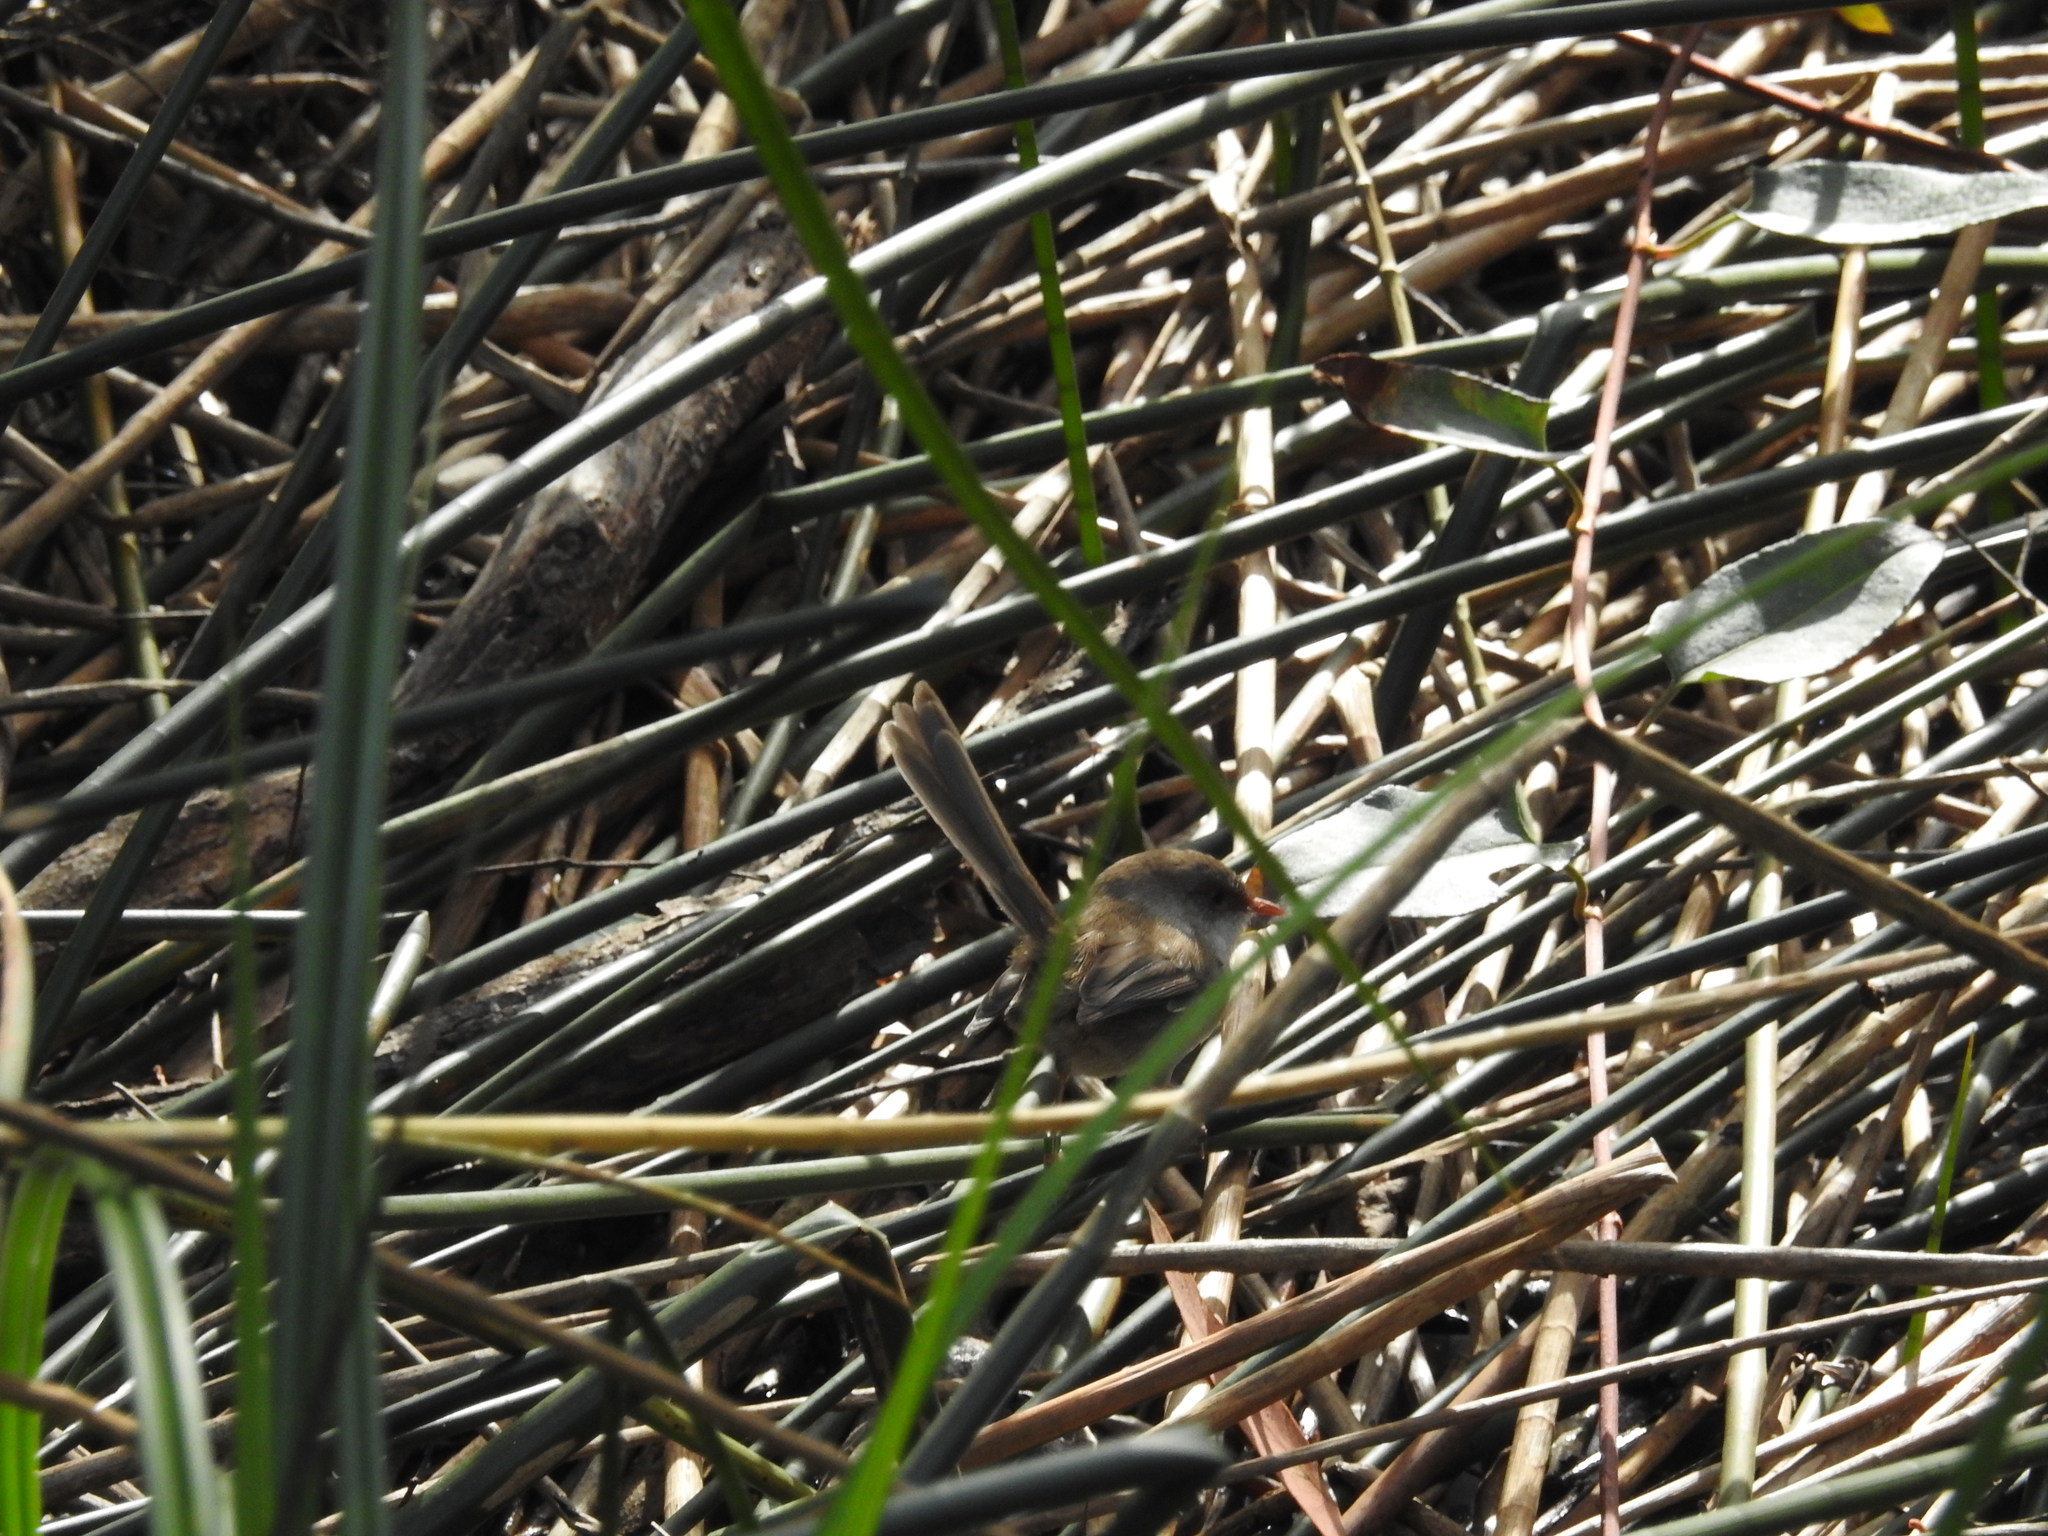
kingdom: Animalia
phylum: Chordata
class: Aves
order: Passeriformes
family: Maluridae
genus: Malurus
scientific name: Malurus cyaneus
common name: Superb fairywren
